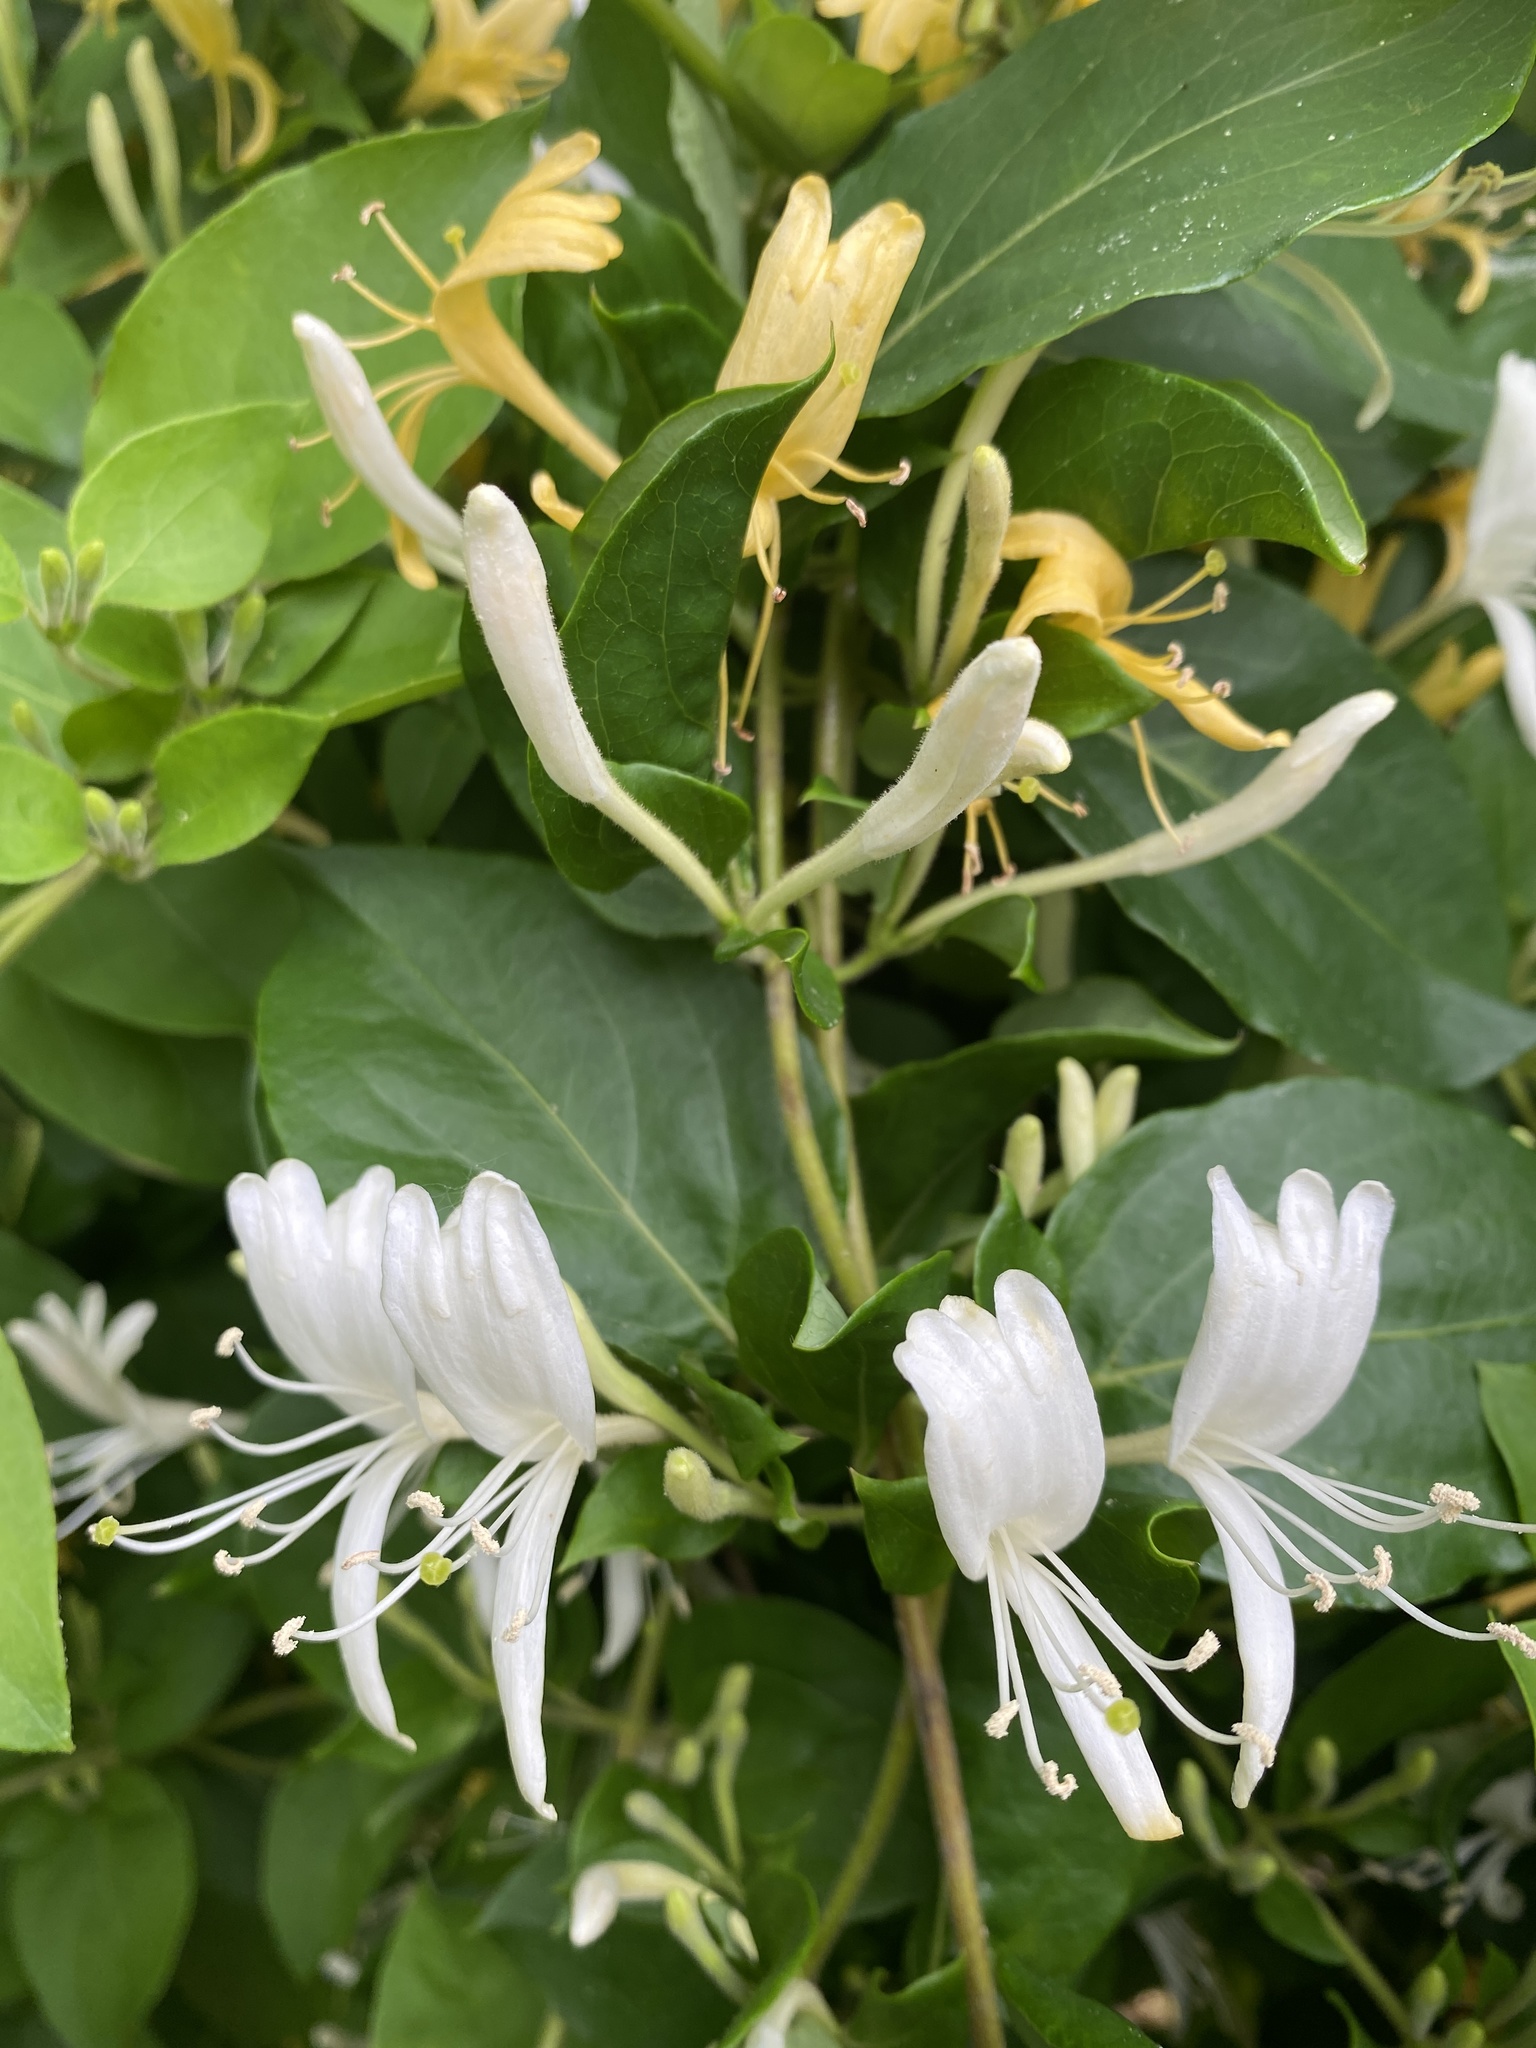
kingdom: Plantae
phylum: Tracheophyta
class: Magnoliopsida
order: Dipsacales
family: Caprifoliaceae
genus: Lonicera
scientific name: Lonicera japonica
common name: Japanese honeysuckle
